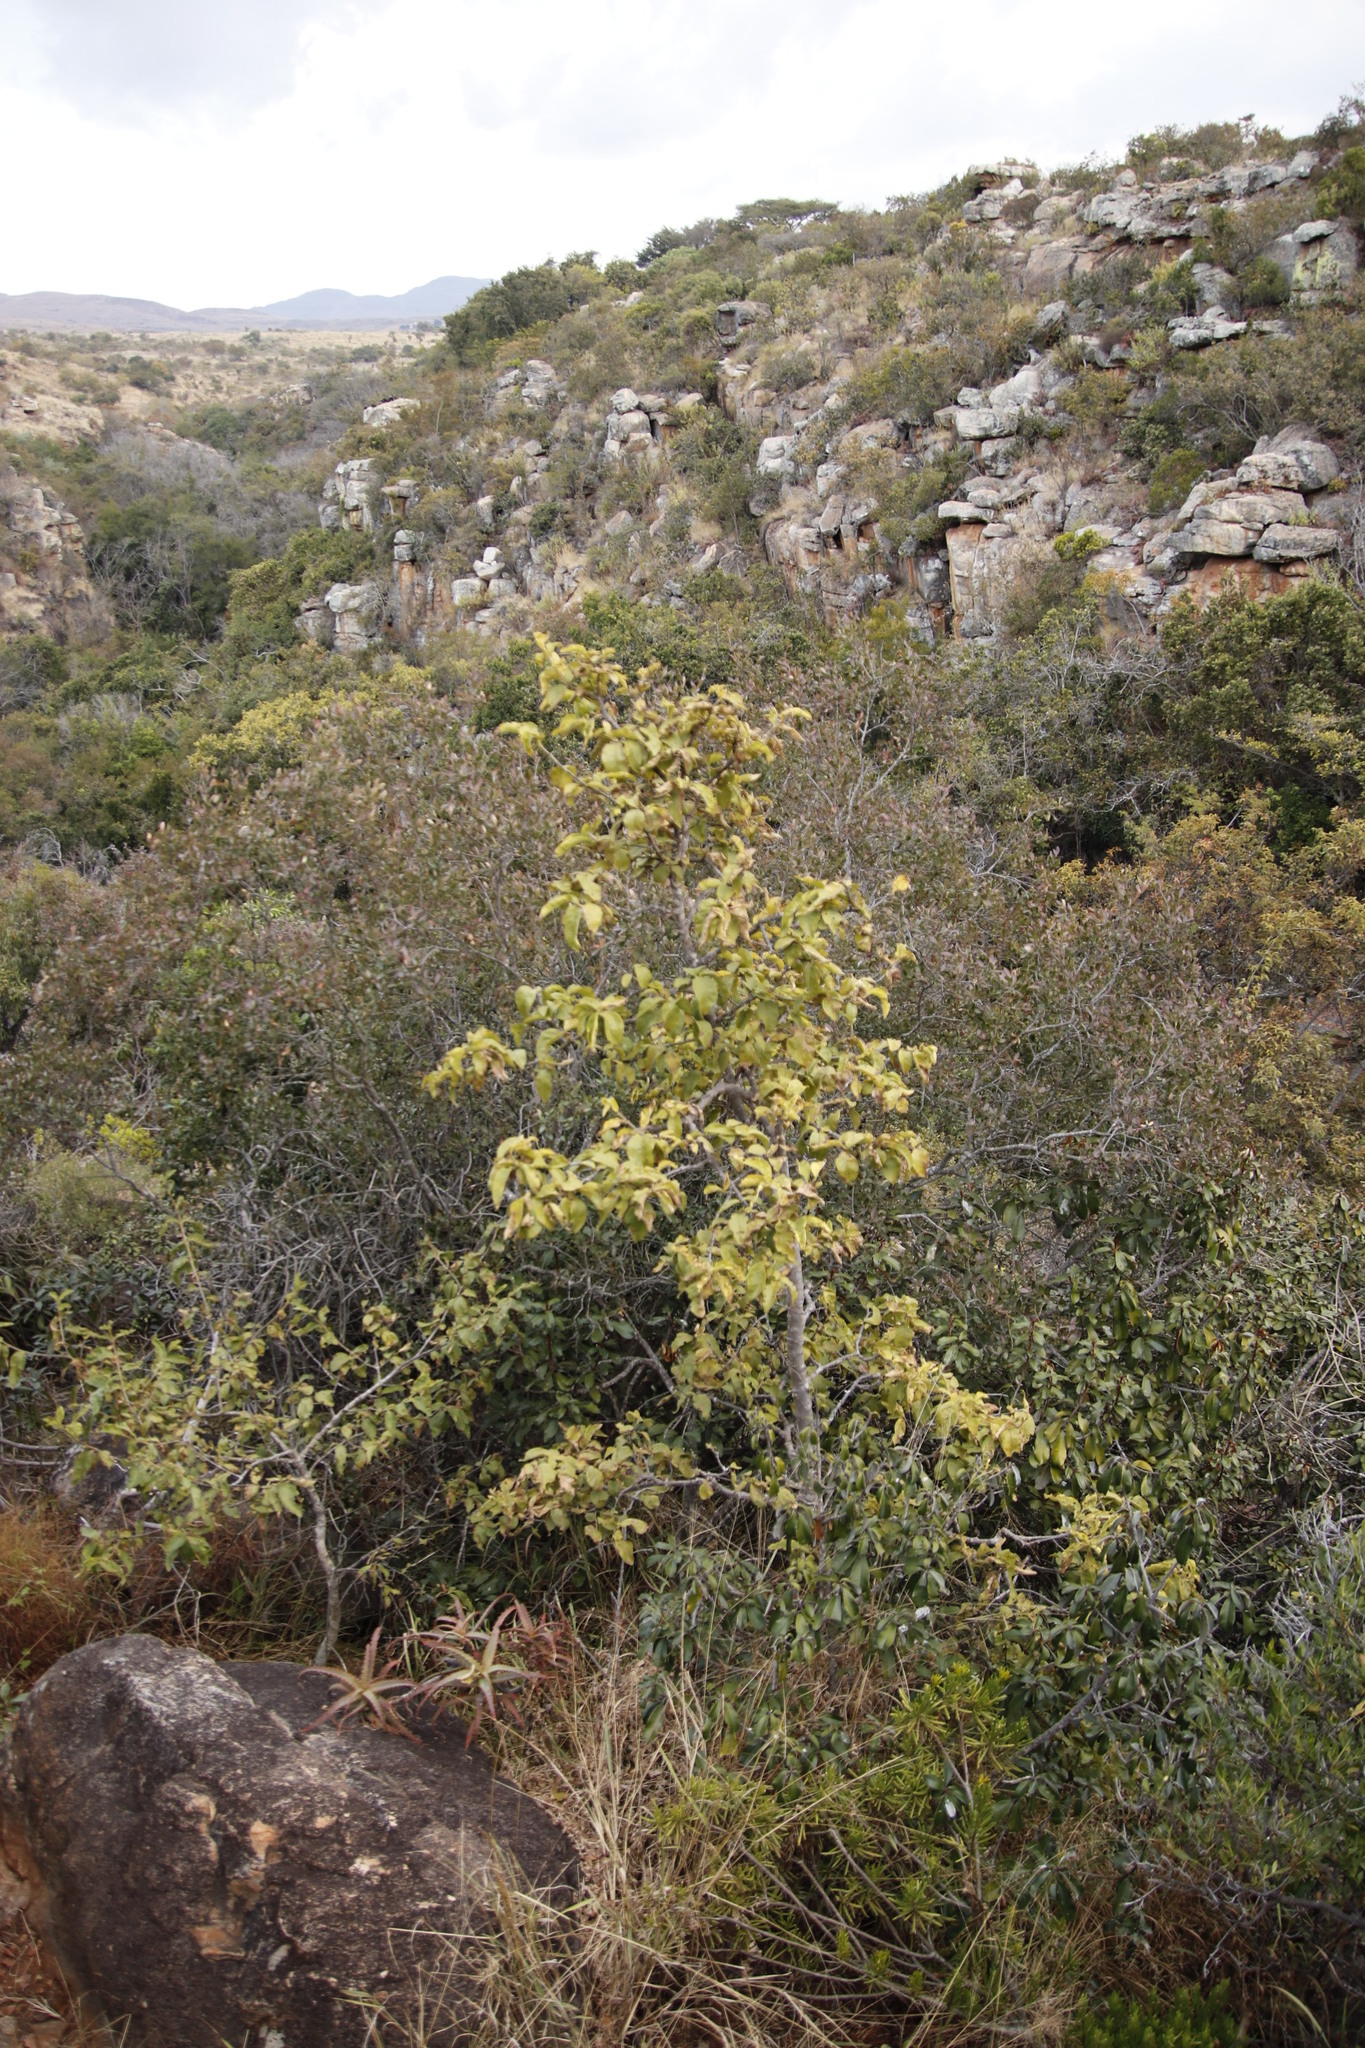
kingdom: Plantae
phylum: Tracheophyta
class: Magnoliopsida
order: Gentianales
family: Rubiaceae
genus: Vangueria
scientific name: Vangueria infausta
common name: Medlar
